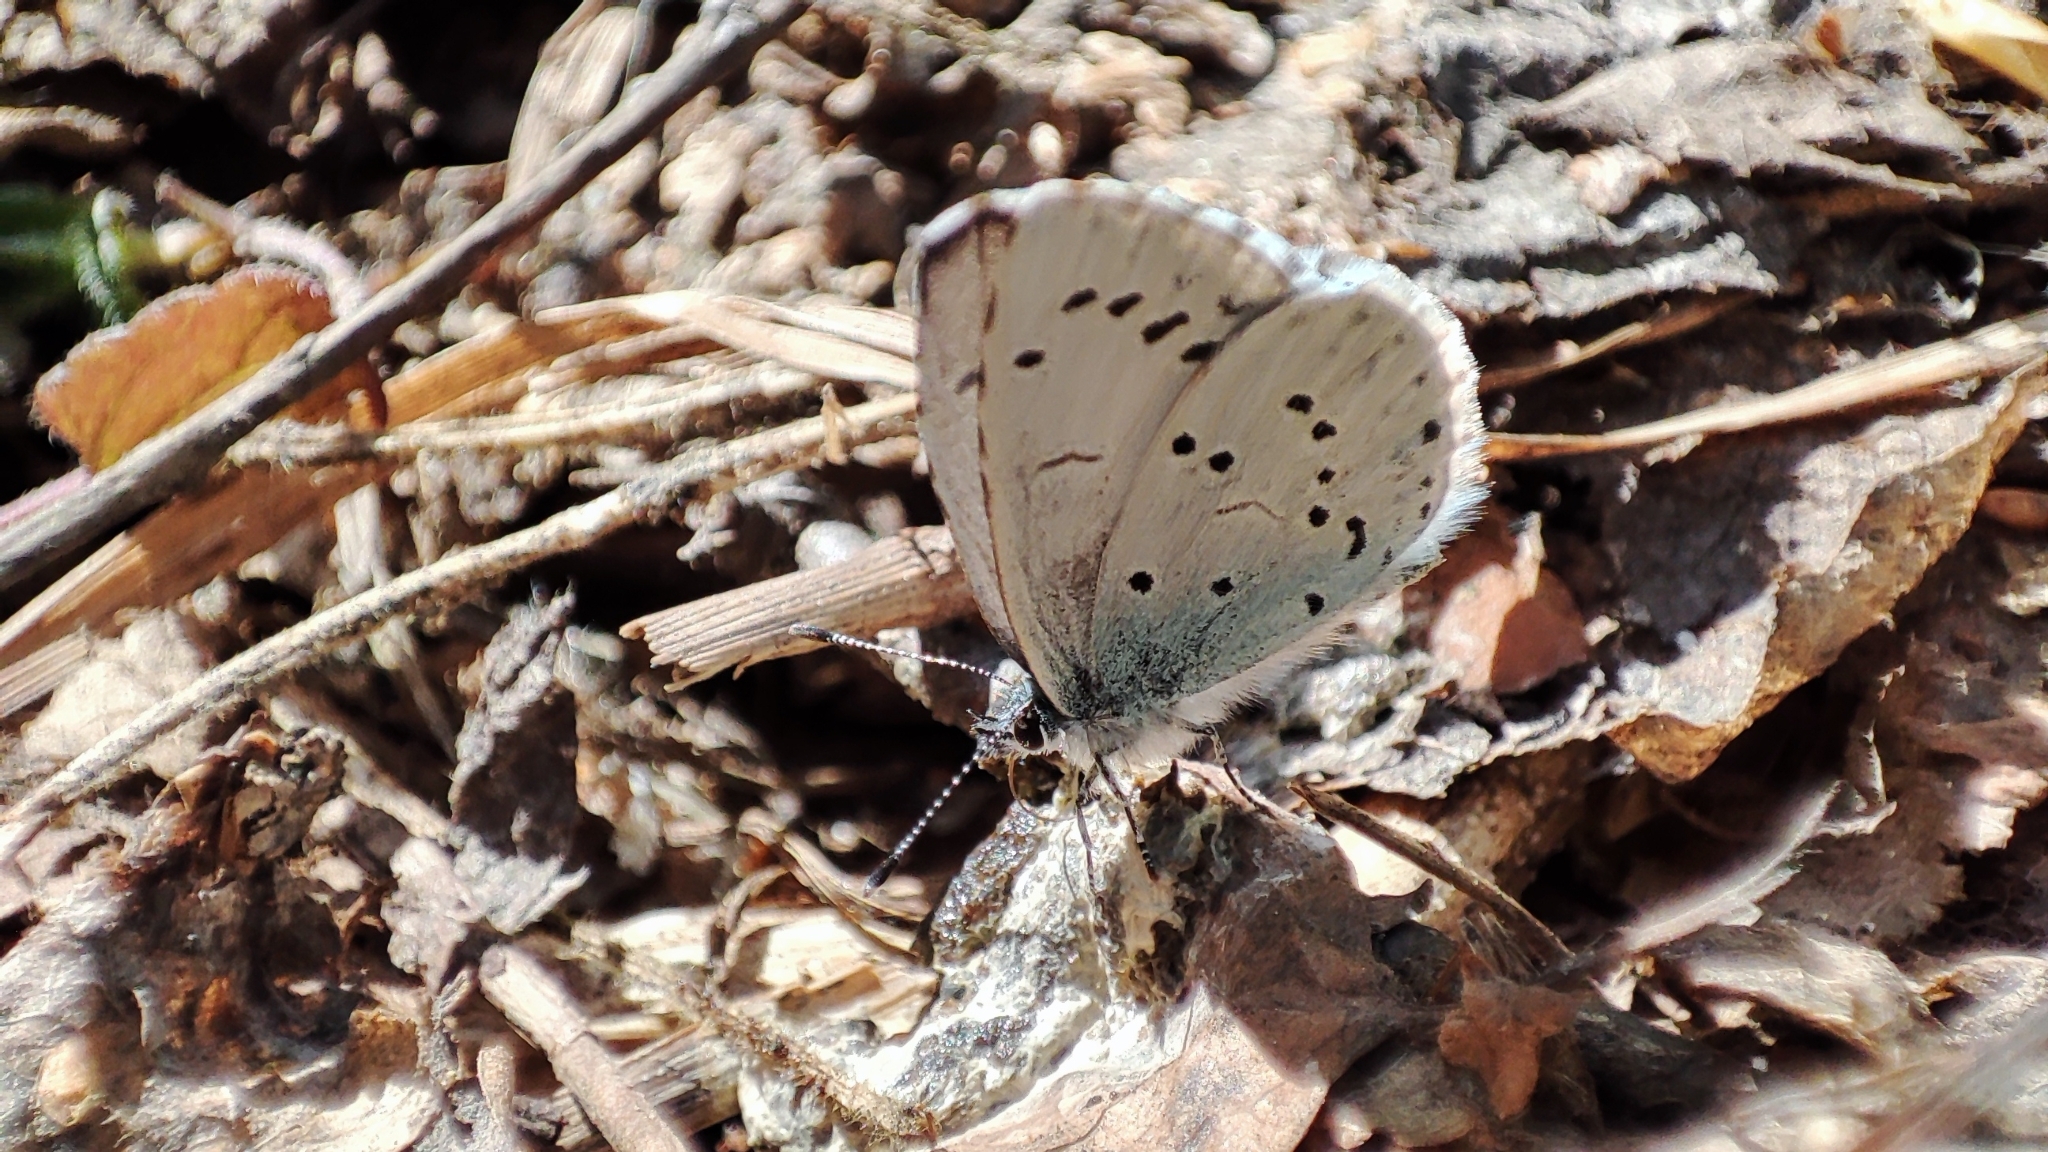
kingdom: Animalia
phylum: Arthropoda
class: Insecta
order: Lepidoptera
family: Lycaenidae
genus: Celastrina
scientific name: Celastrina argiolus
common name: Holly blue
